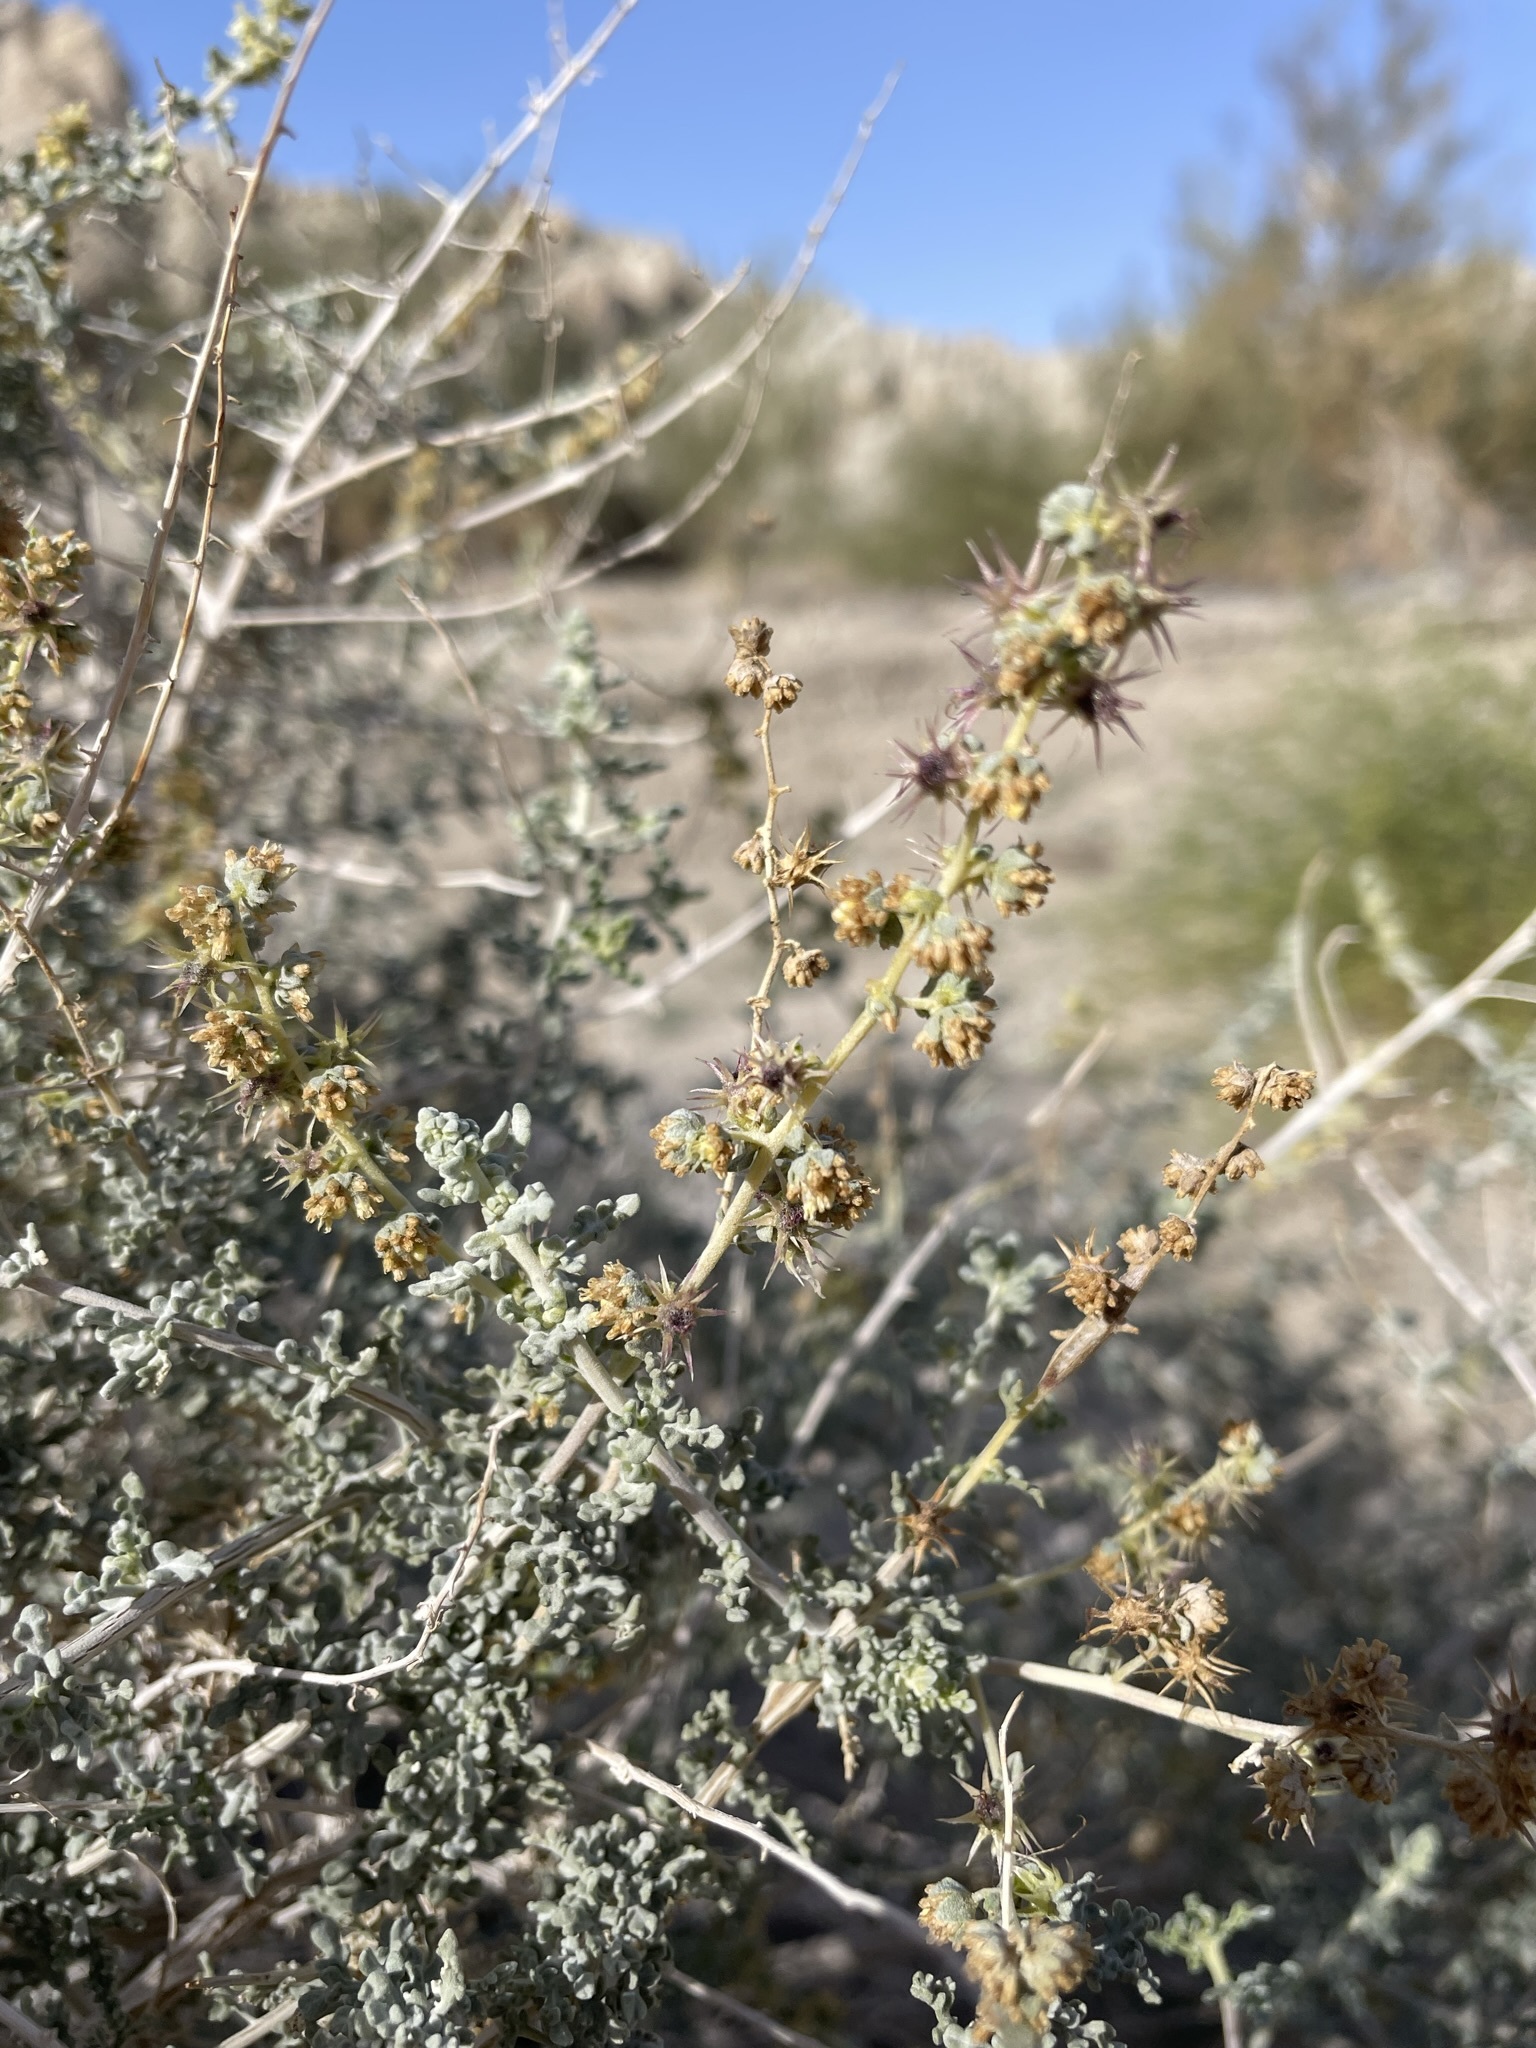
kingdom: Plantae
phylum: Tracheophyta
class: Magnoliopsida
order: Asterales
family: Asteraceae
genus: Ambrosia
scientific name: Ambrosia dumosa
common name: Bur-sage
